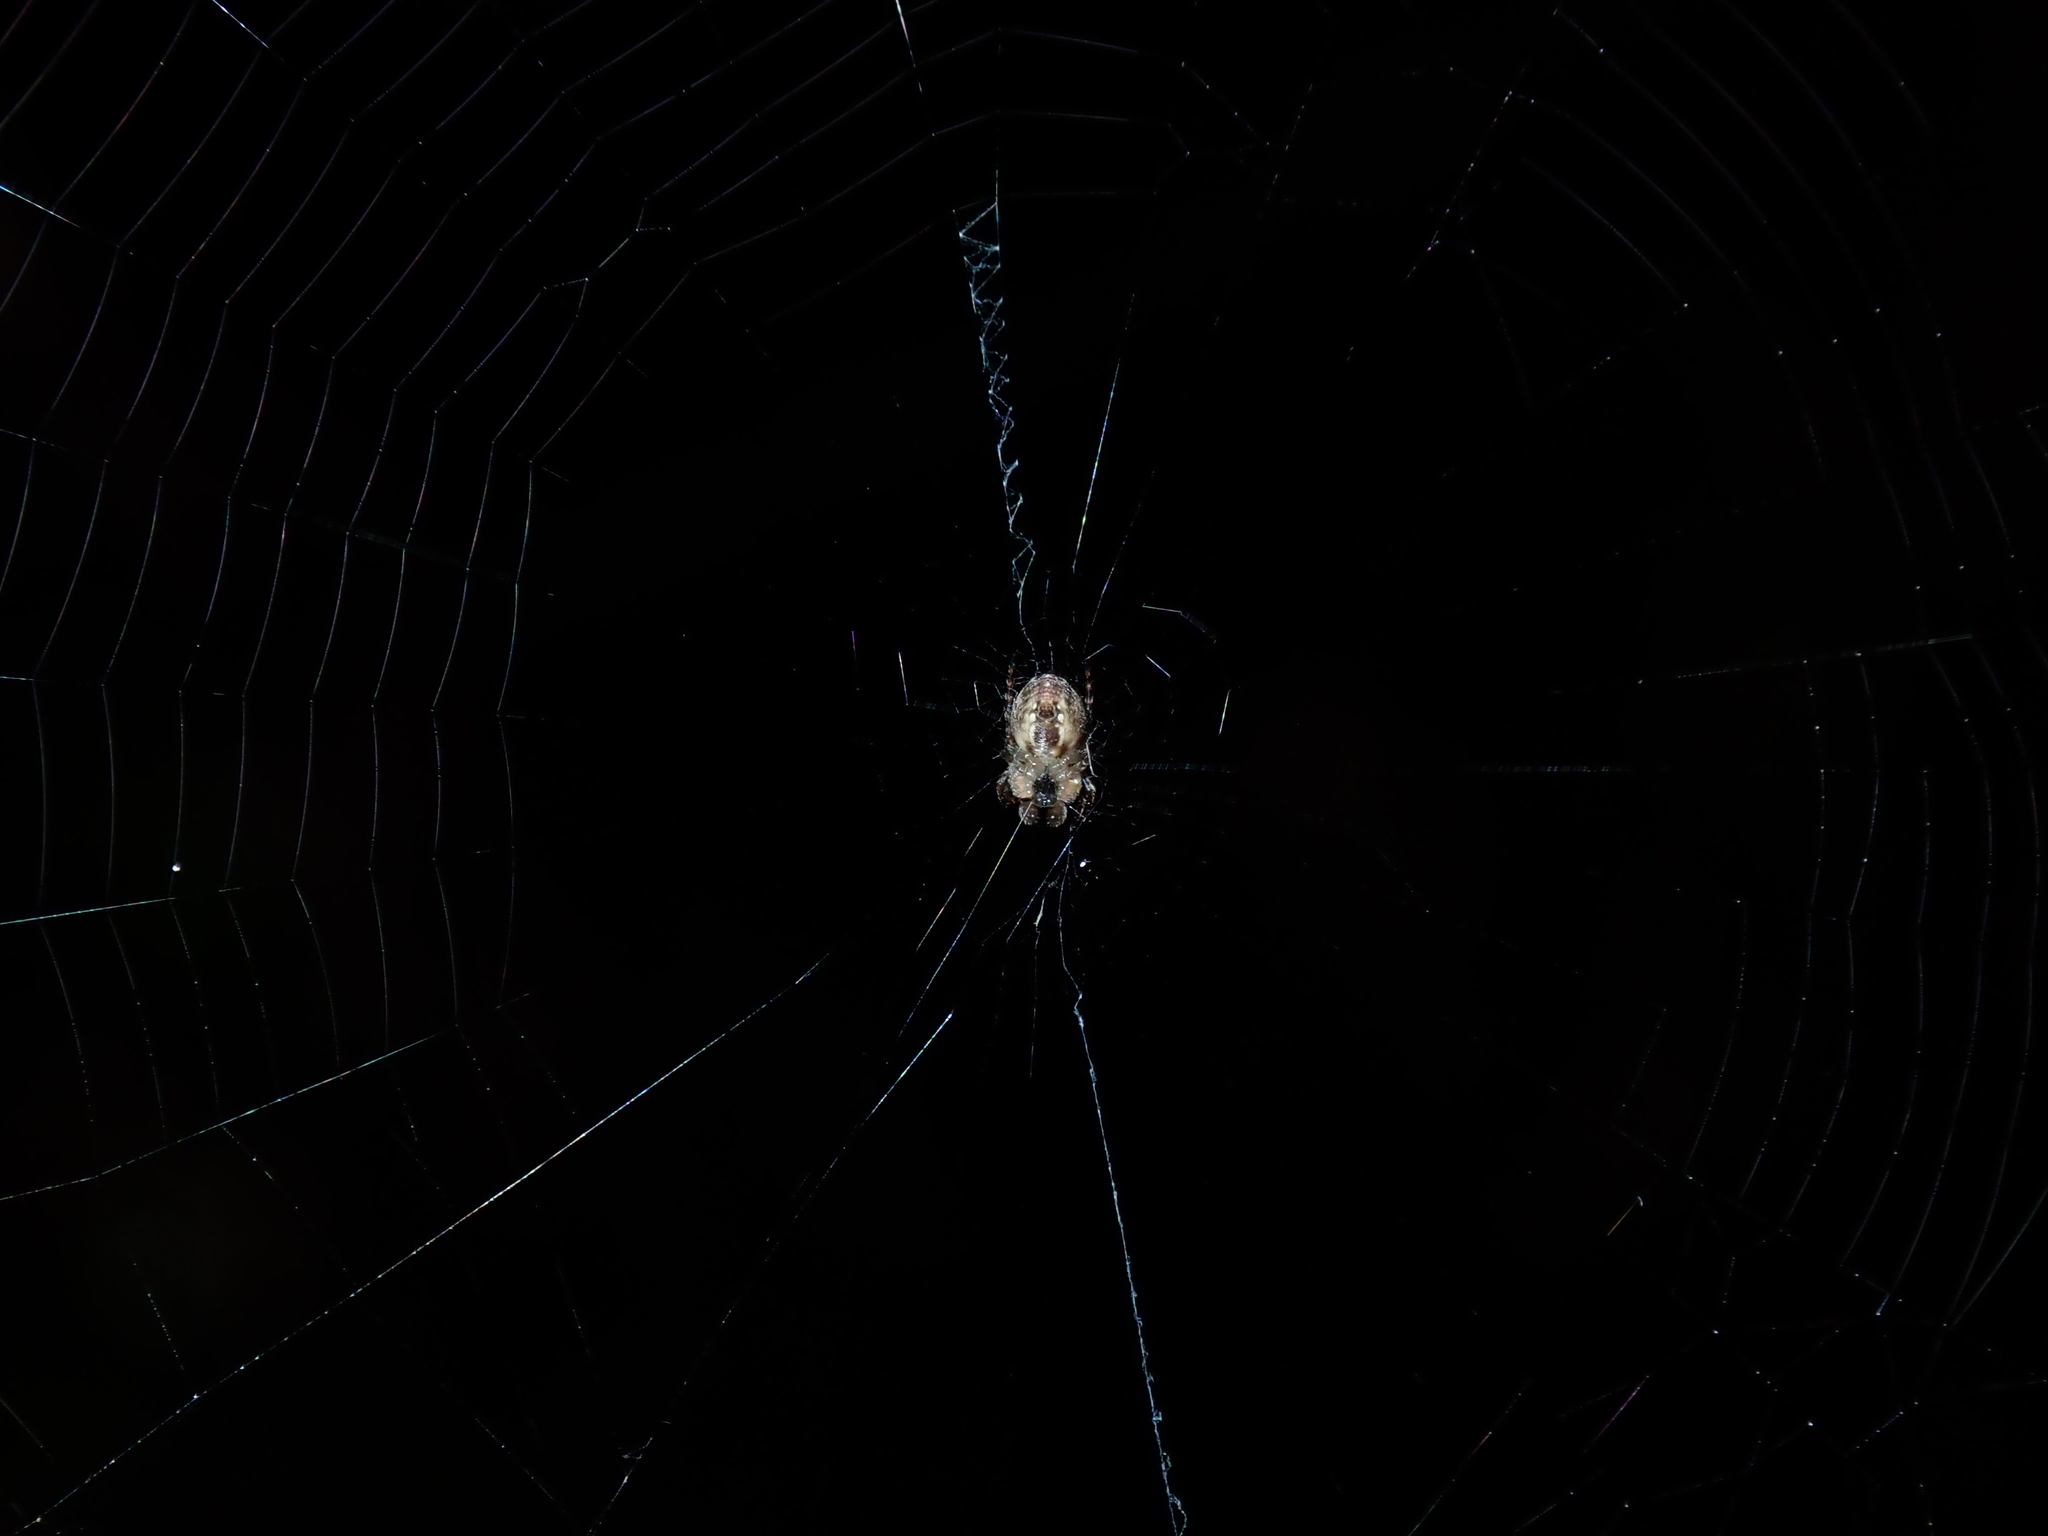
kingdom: Animalia
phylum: Arthropoda
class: Arachnida
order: Araneae
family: Araneidae
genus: Plebs
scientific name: Plebs eburnus
